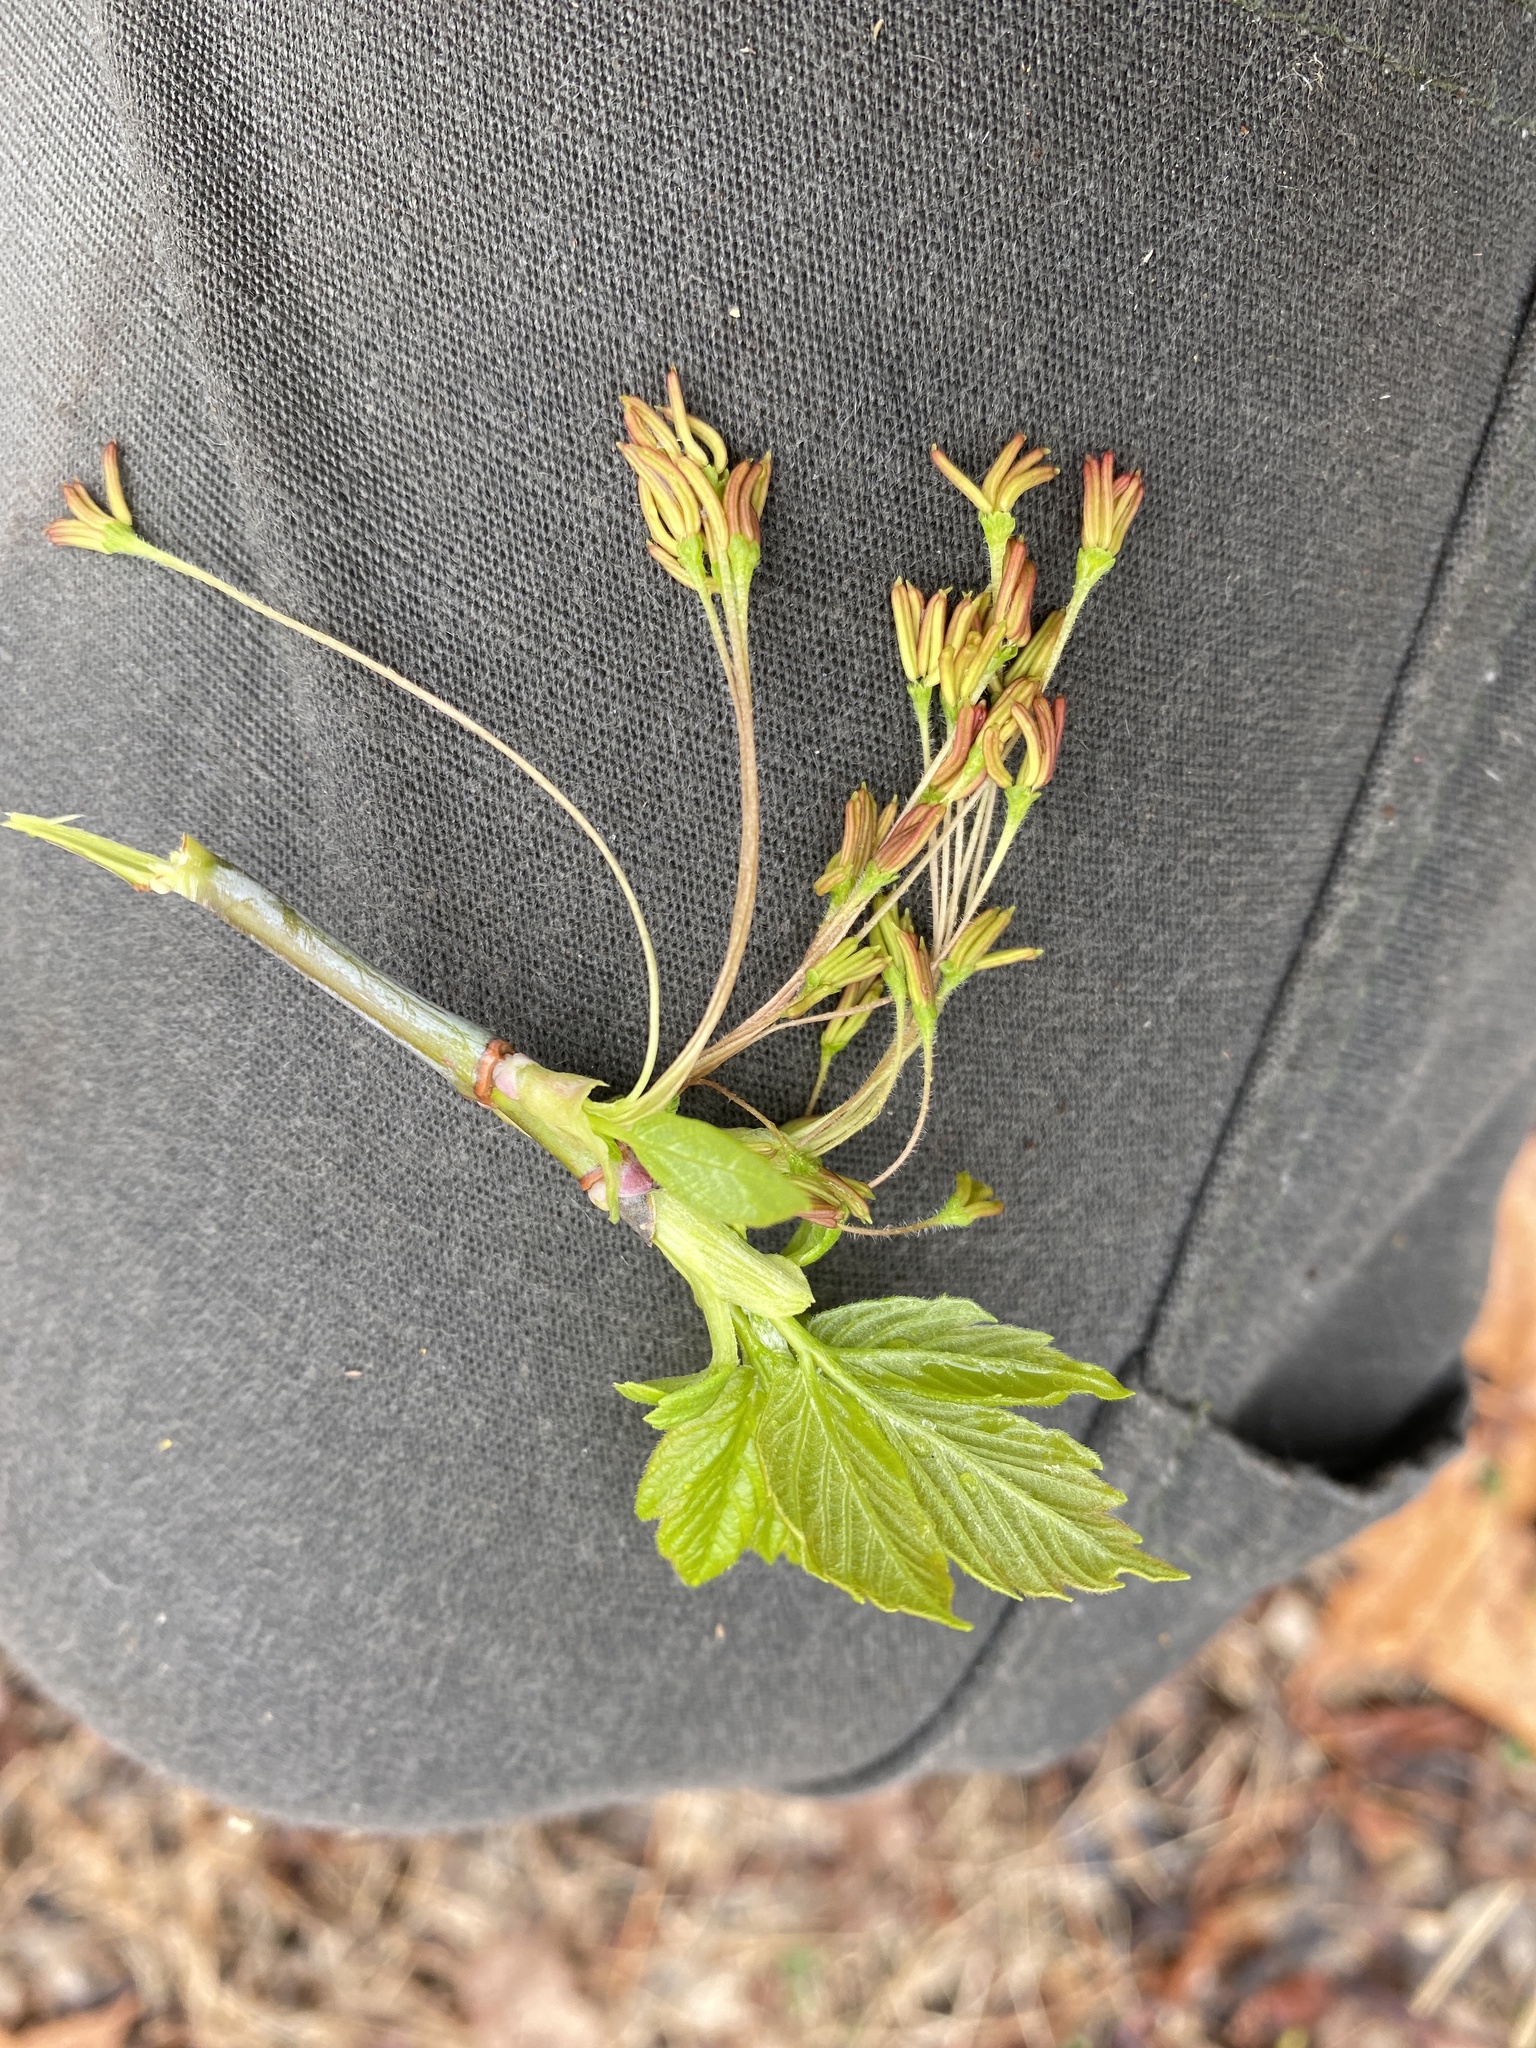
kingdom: Plantae
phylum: Tracheophyta
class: Magnoliopsida
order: Sapindales
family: Sapindaceae
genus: Acer
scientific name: Acer negundo
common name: Ashleaf maple
